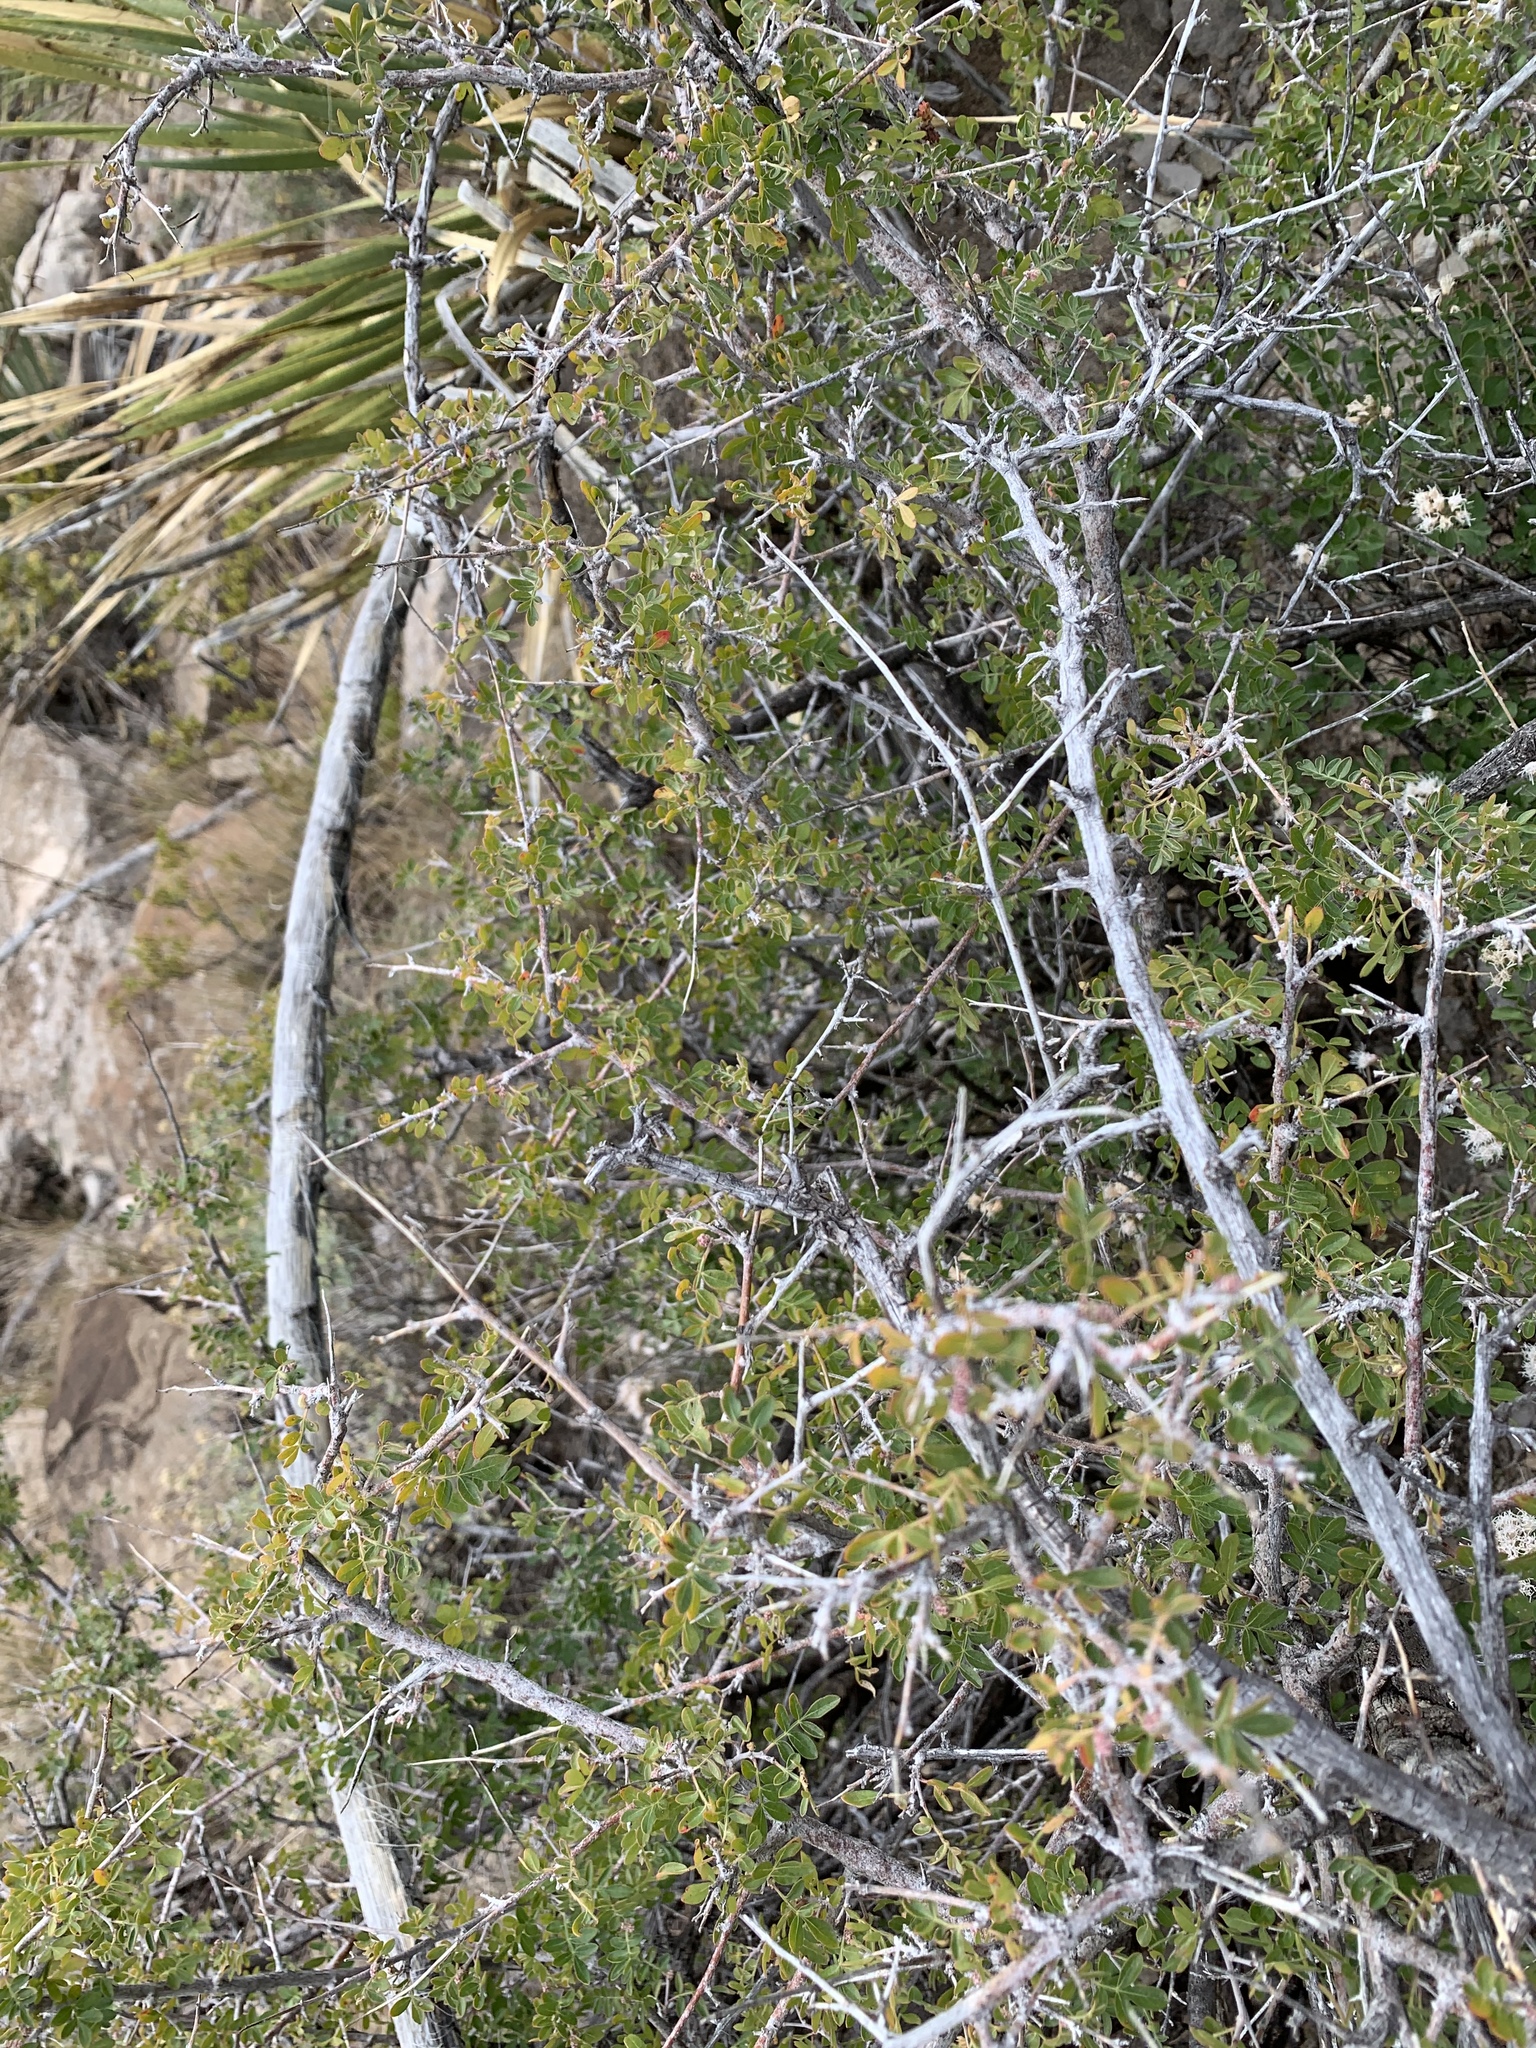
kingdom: Plantae
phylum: Tracheophyta
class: Magnoliopsida
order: Sapindales
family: Anacardiaceae
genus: Rhus
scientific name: Rhus microphylla
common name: Desert sumac
